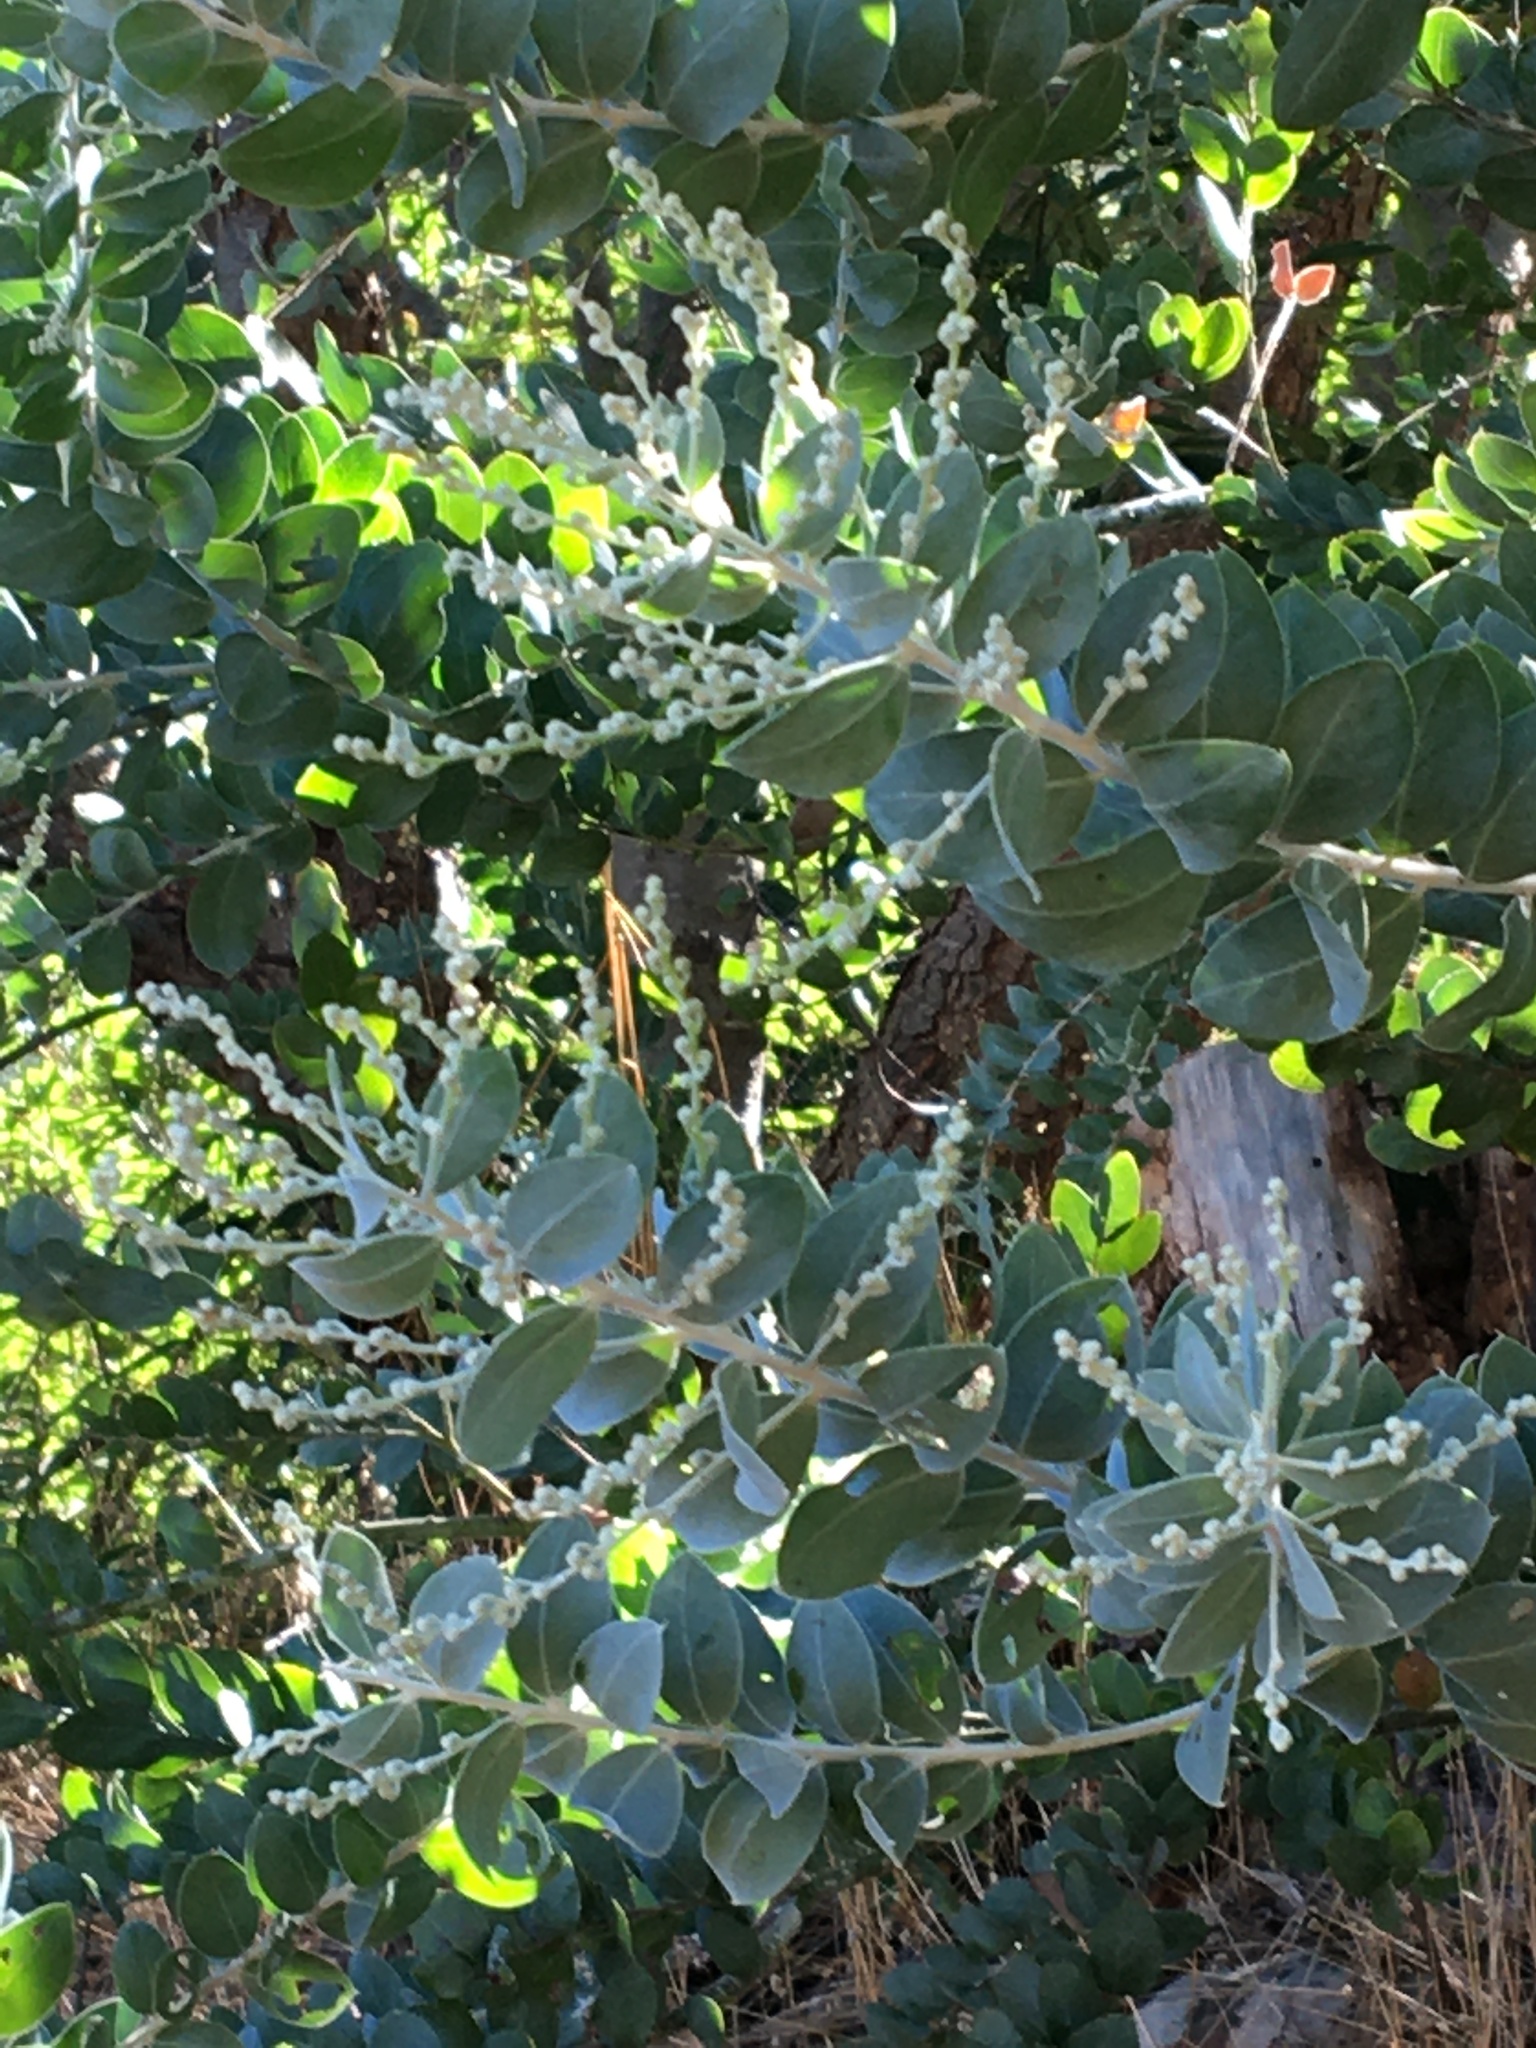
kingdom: Plantae
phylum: Tracheophyta
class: Magnoliopsida
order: Fabales
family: Fabaceae
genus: Acacia
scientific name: Acacia podalyriifolia
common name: Pearl wattle
